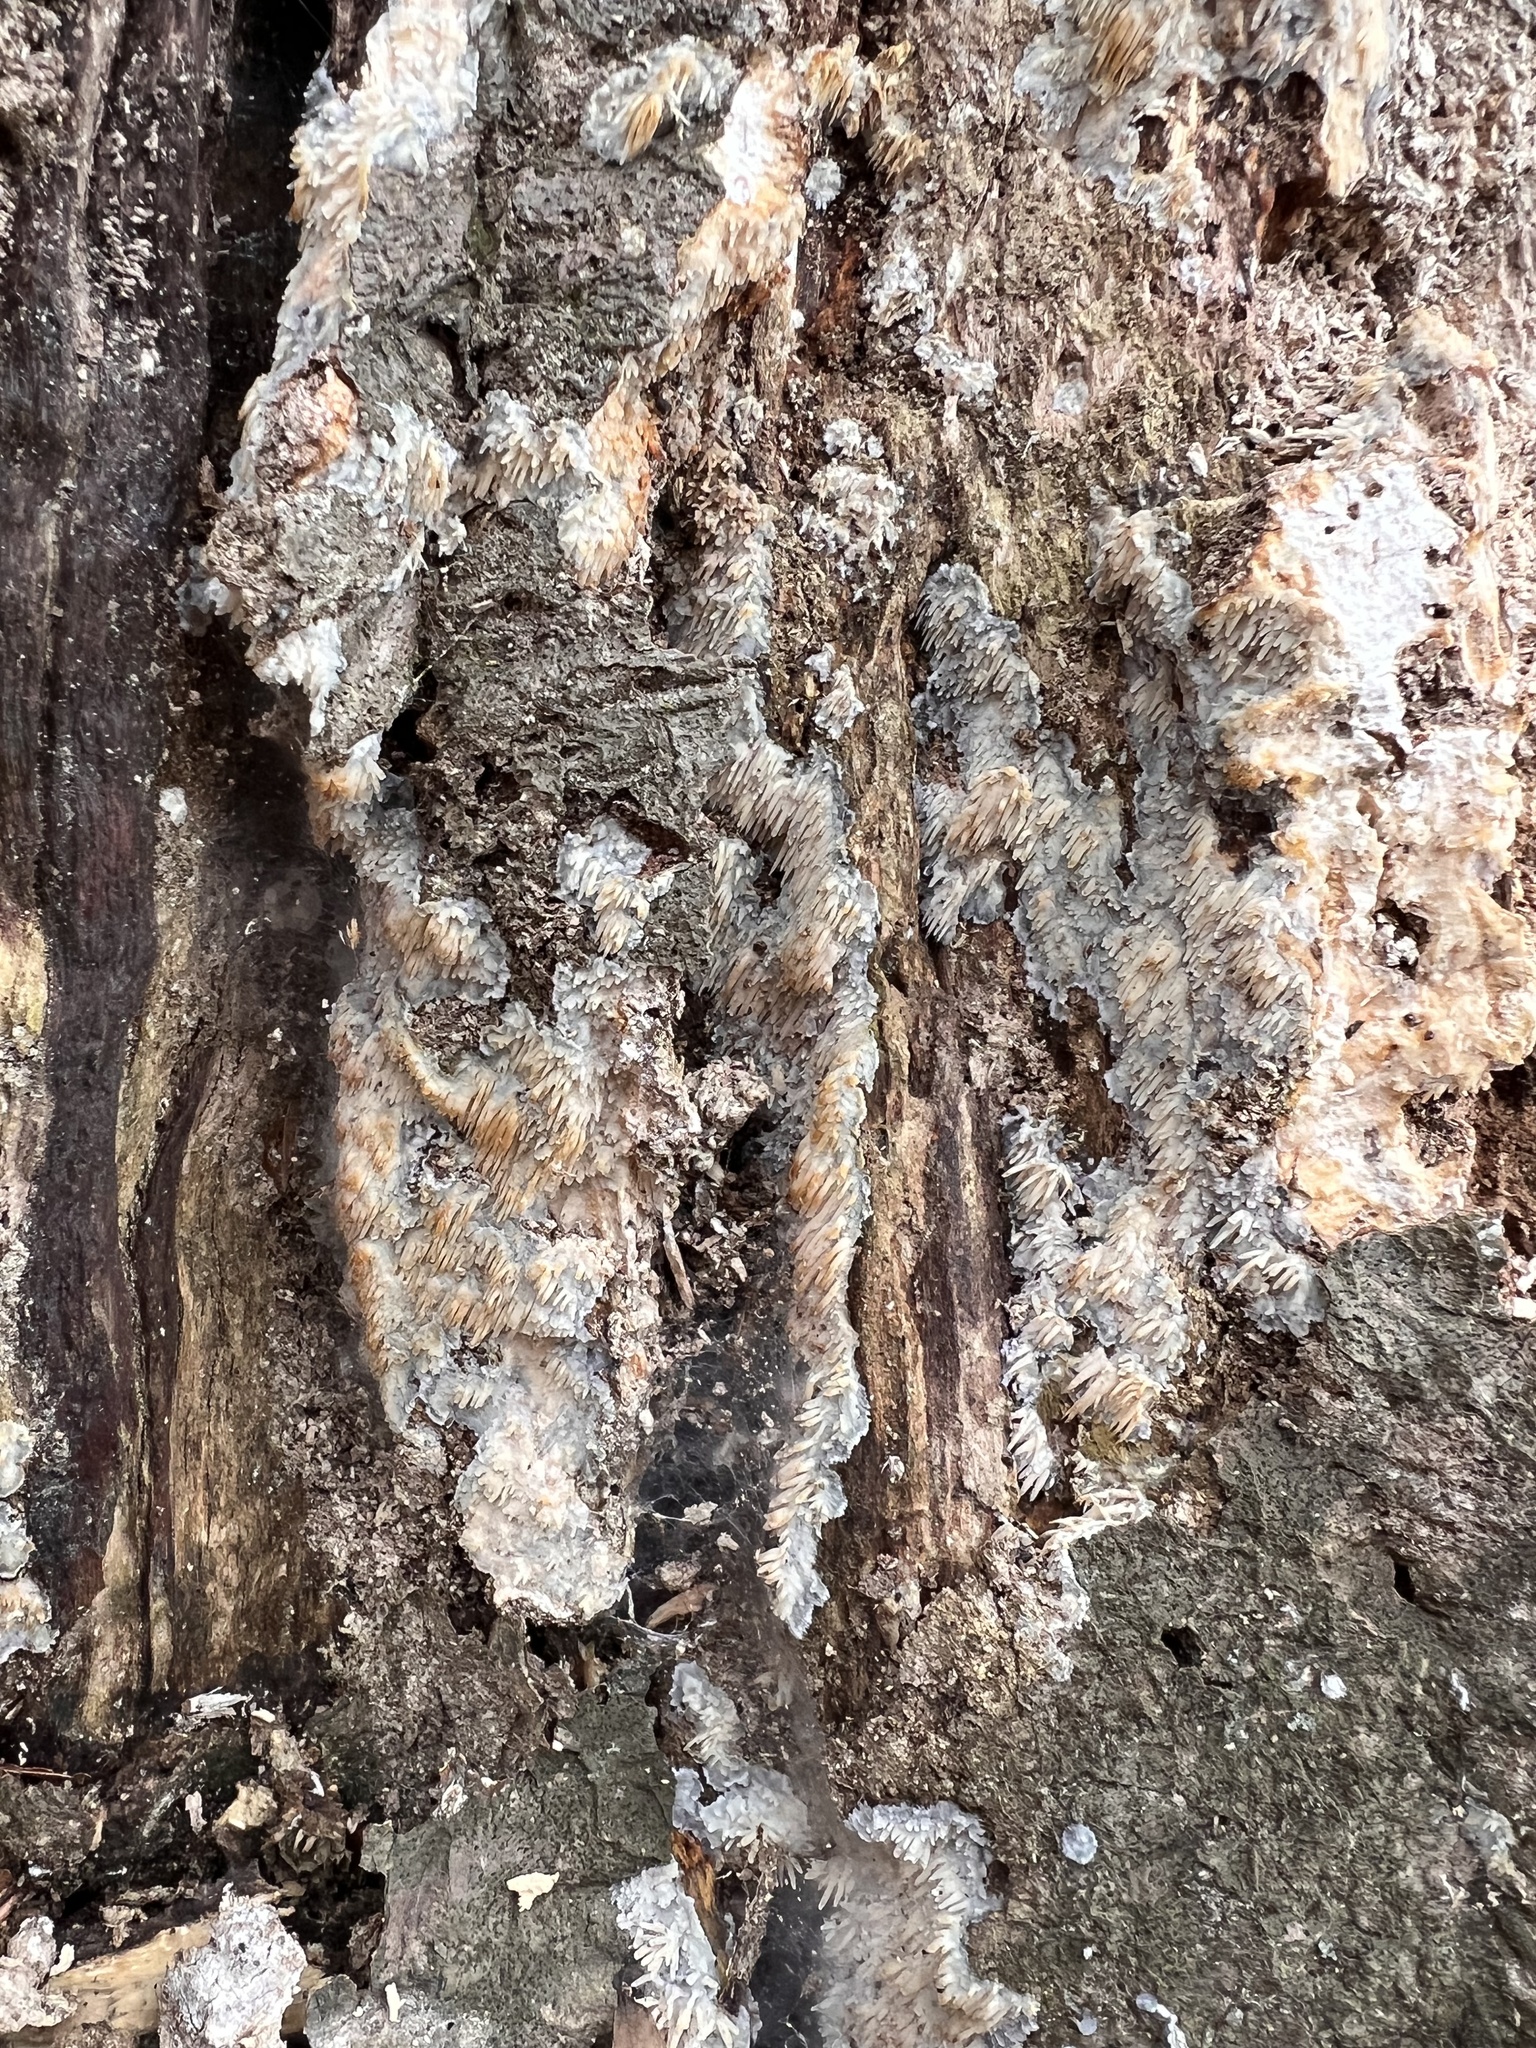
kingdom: Fungi
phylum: Basidiomycota
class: Agaricomycetes
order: Agaricales
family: Radulomycetaceae
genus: Radulomyces
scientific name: Radulomyces copelandii
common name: Asian beauty
